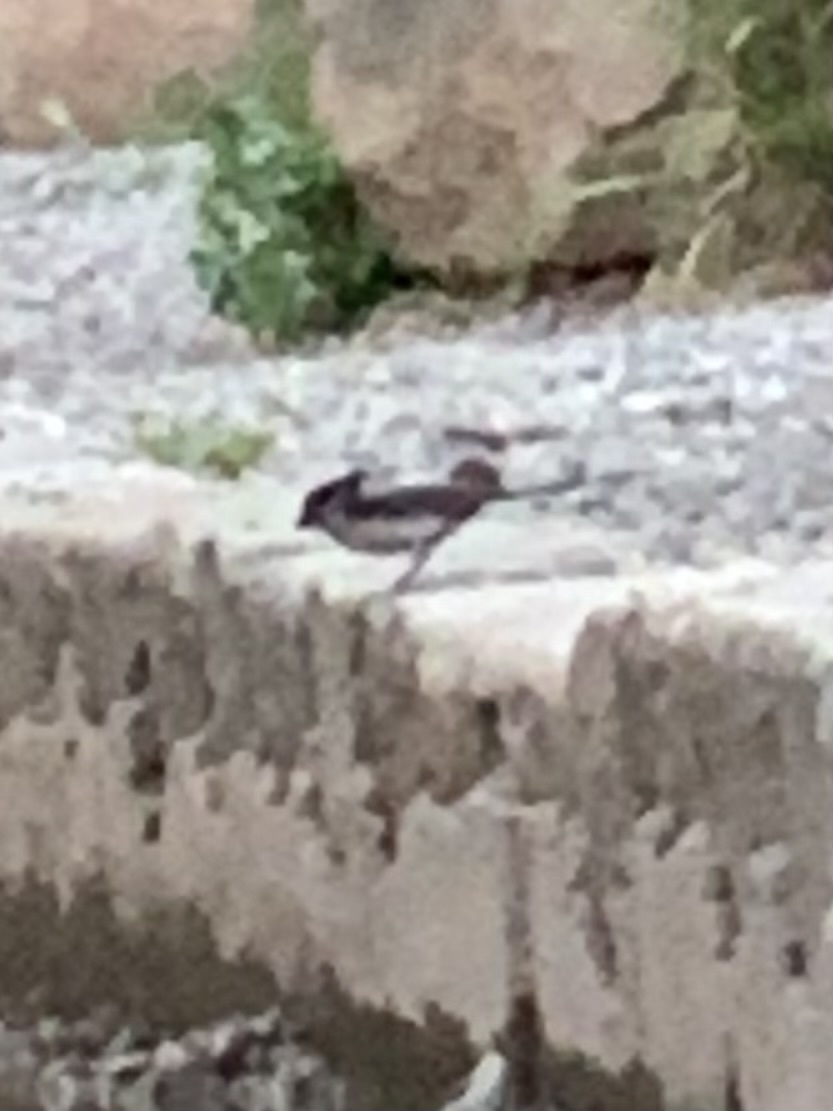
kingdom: Animalia
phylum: Chordata
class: Aves
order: Passeriformes
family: Aegithalidae
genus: Aegithalos
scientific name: Aegithalos caudatus
